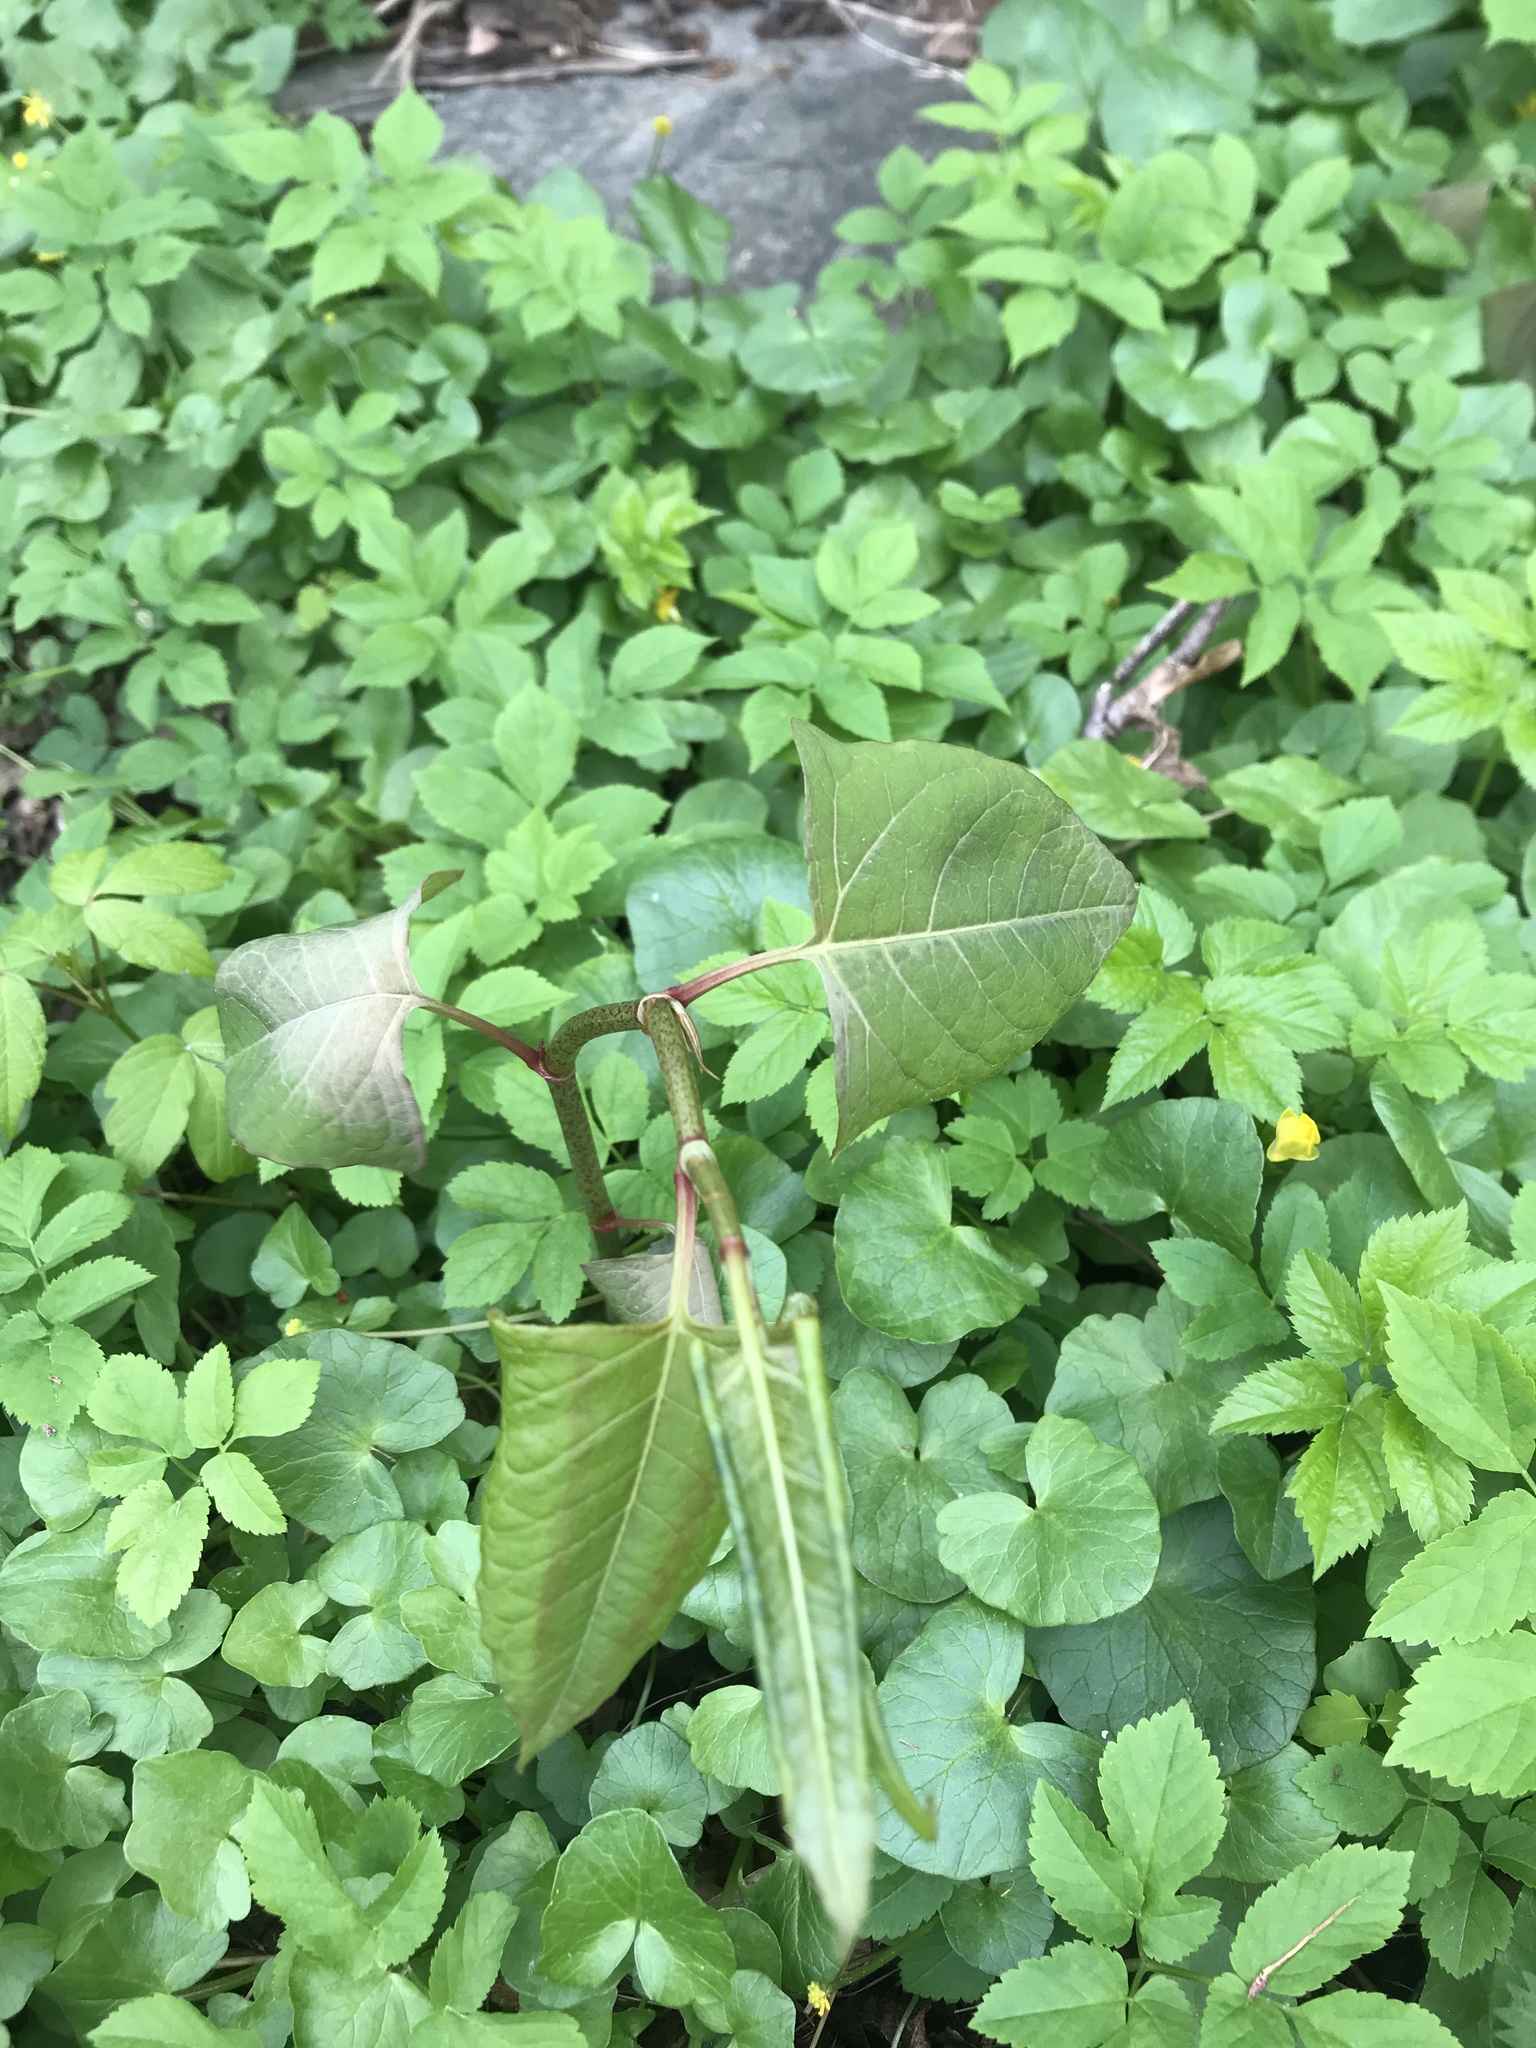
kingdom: Plantae
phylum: Tracheophyta
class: Magnoliopsida
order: Caryophyllales
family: Polygonaceae
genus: Reynoutria
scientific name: Reynoutria japonica
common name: Japanese knotweed
